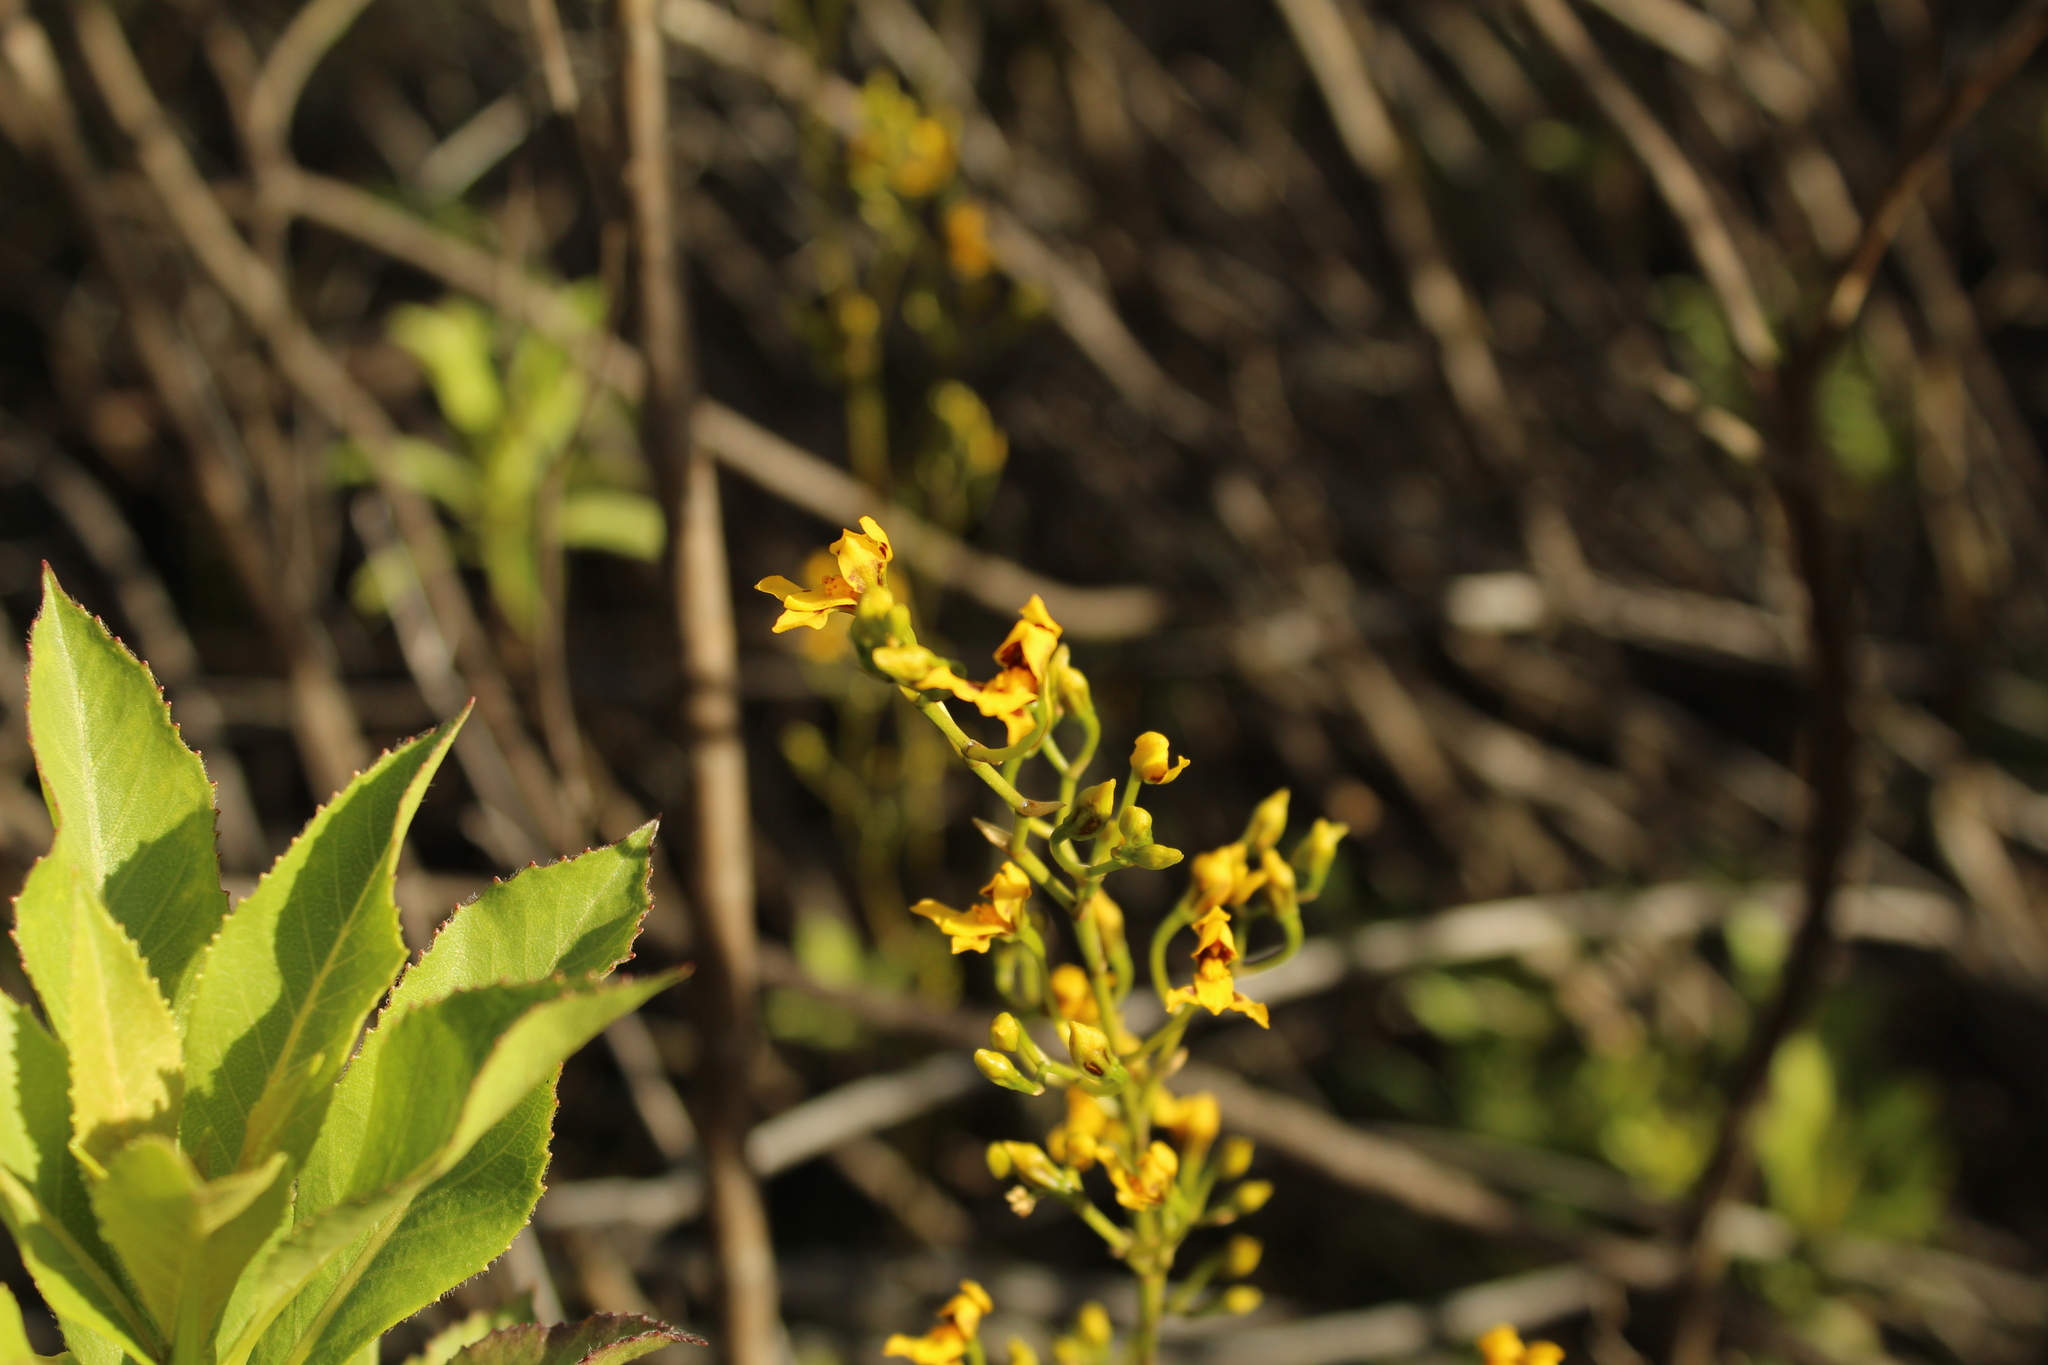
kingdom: Plantae
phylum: Tracheophyta
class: Liliopsida
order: Asparagales
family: Orchidaceae
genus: Cyrtochilum
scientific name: Cyrtochilum densiflorum
